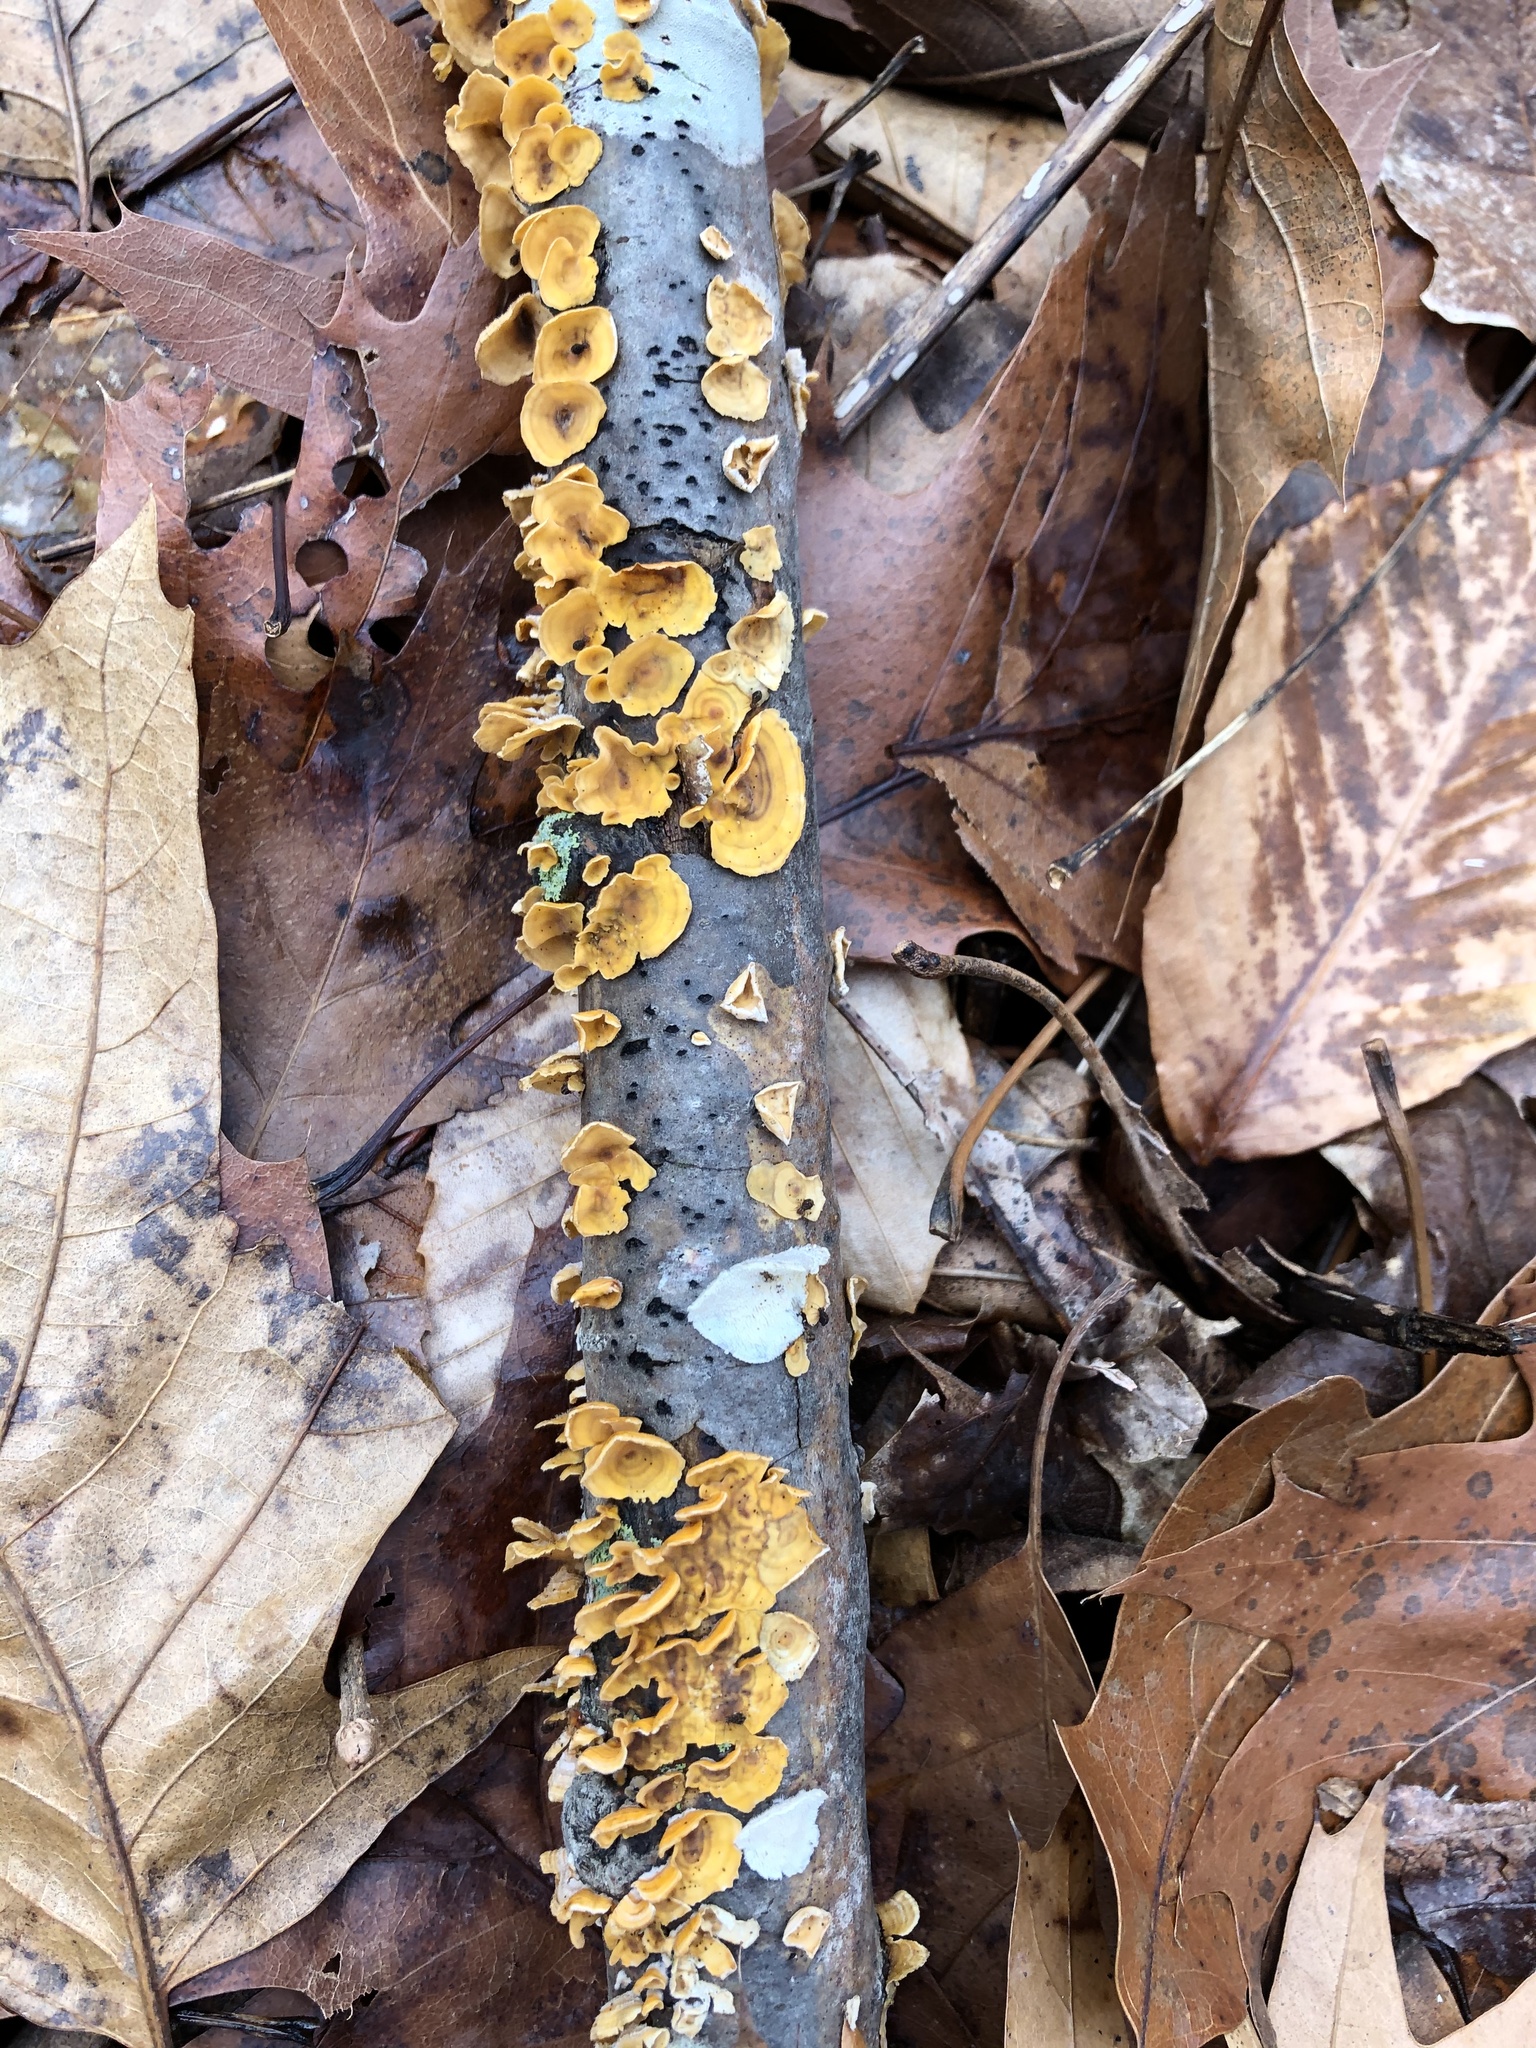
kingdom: Fungi
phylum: Basidiomycota
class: Agaricomycetes
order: Russulales
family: Stereaceae
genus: Stereum
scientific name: Stereum complicatum
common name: Crowded parchment
